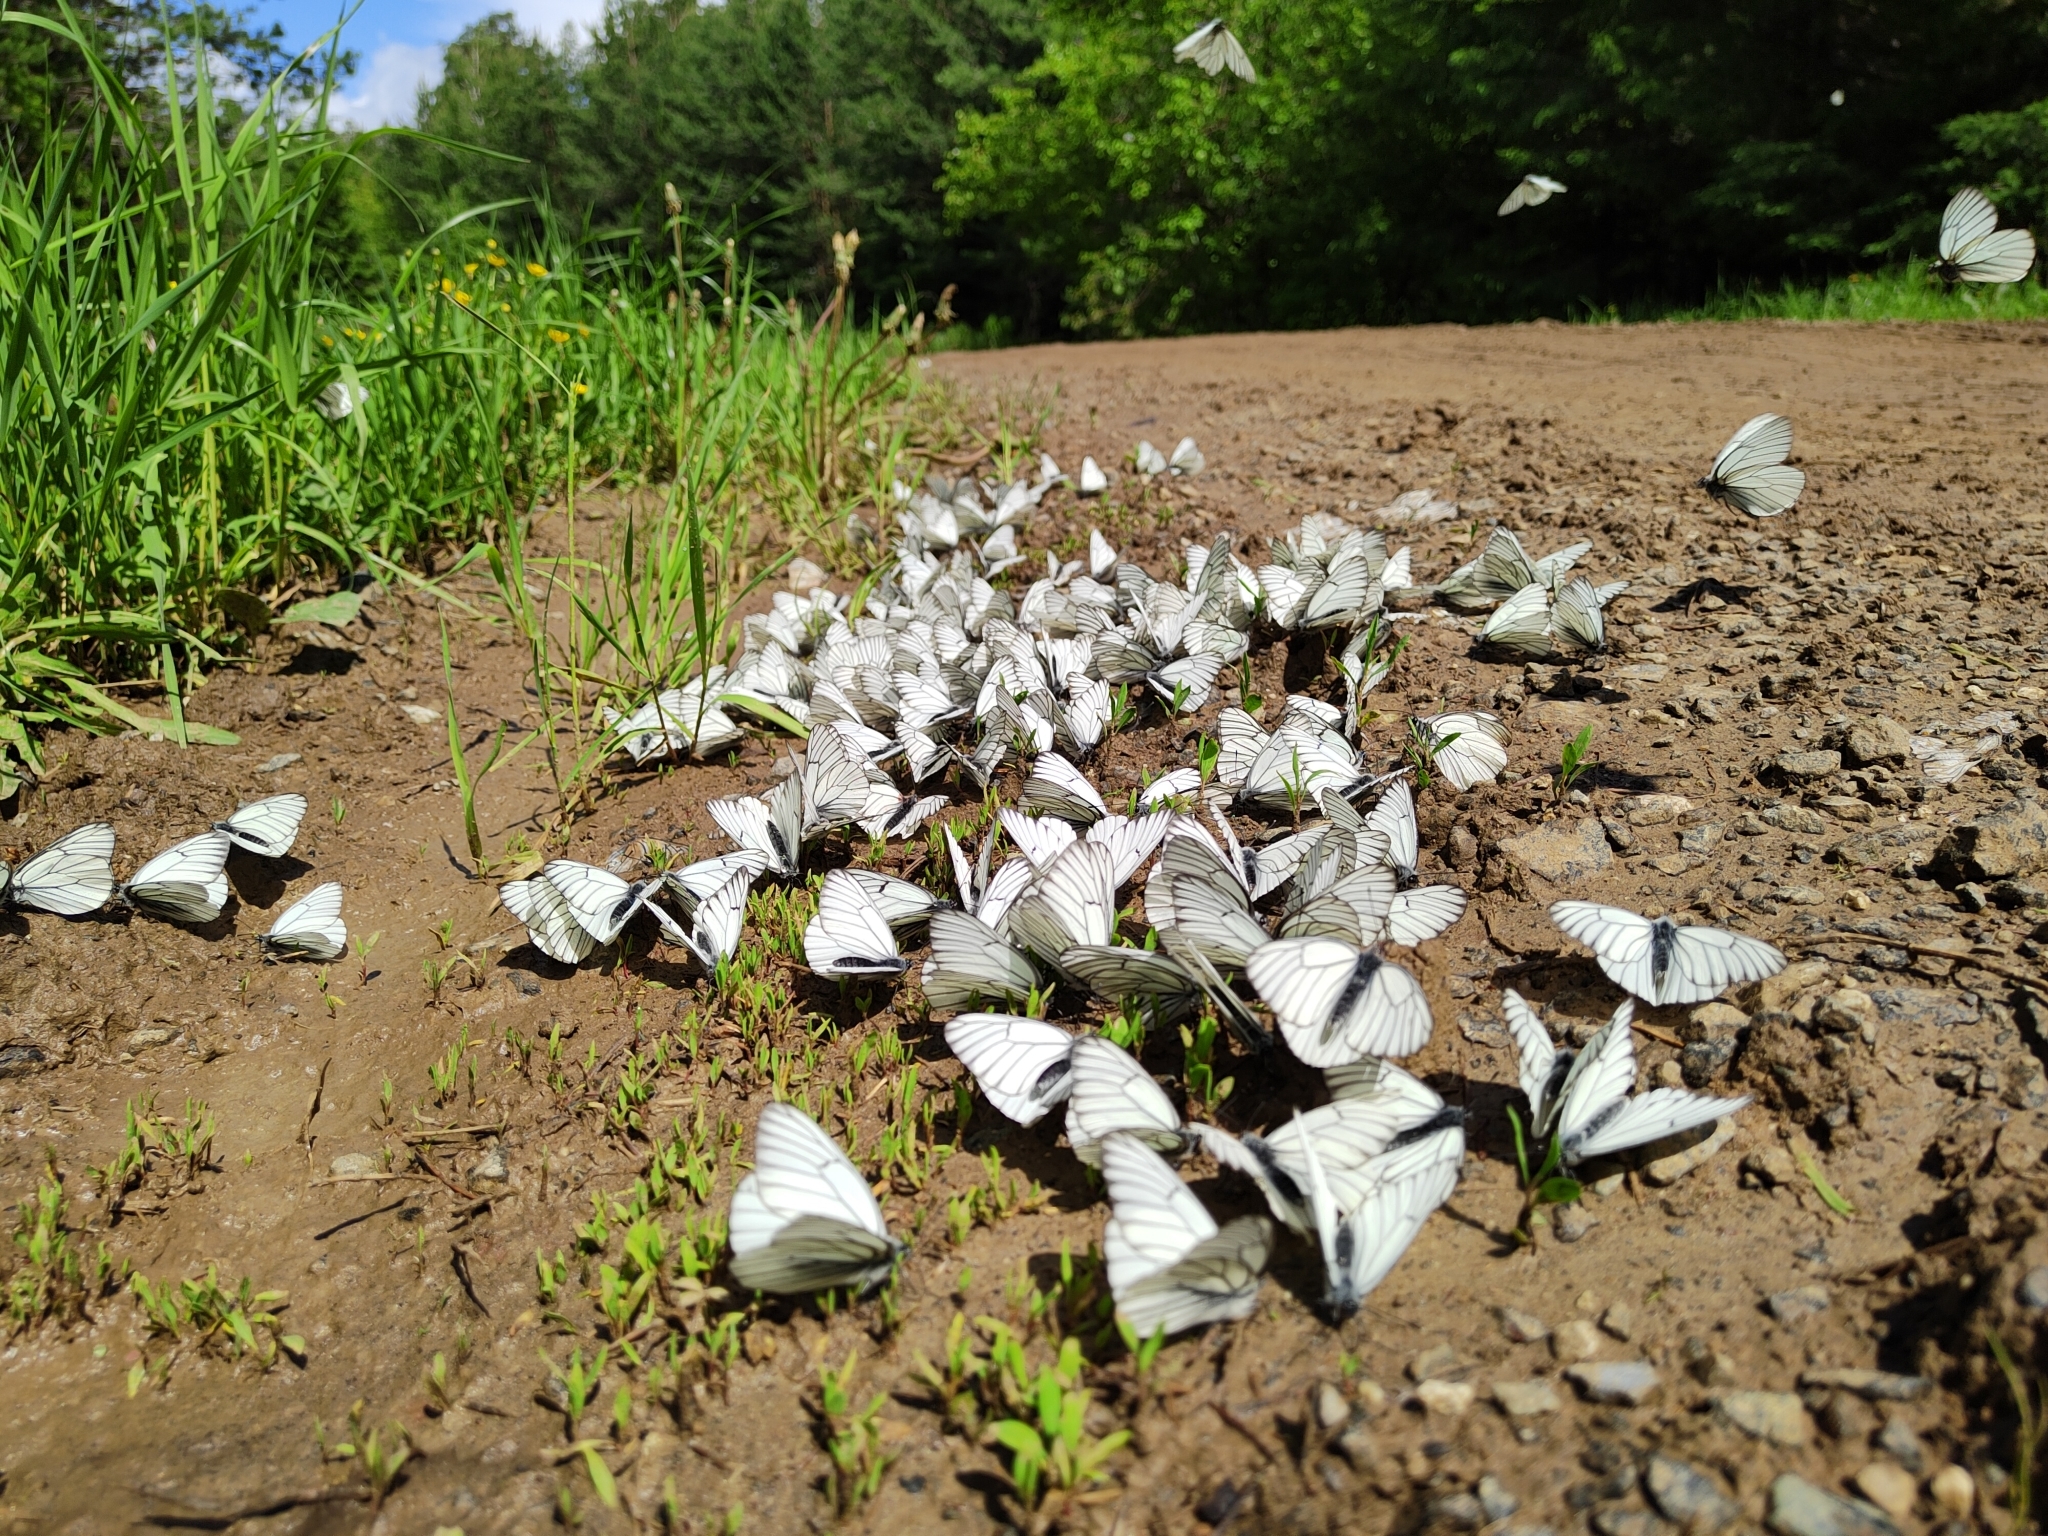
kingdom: Animalia
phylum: Arthropoda
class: Insecta
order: Lepidoptera
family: Pieridae
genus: Aporia
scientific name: Aporia crataegi
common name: Black-veined white
